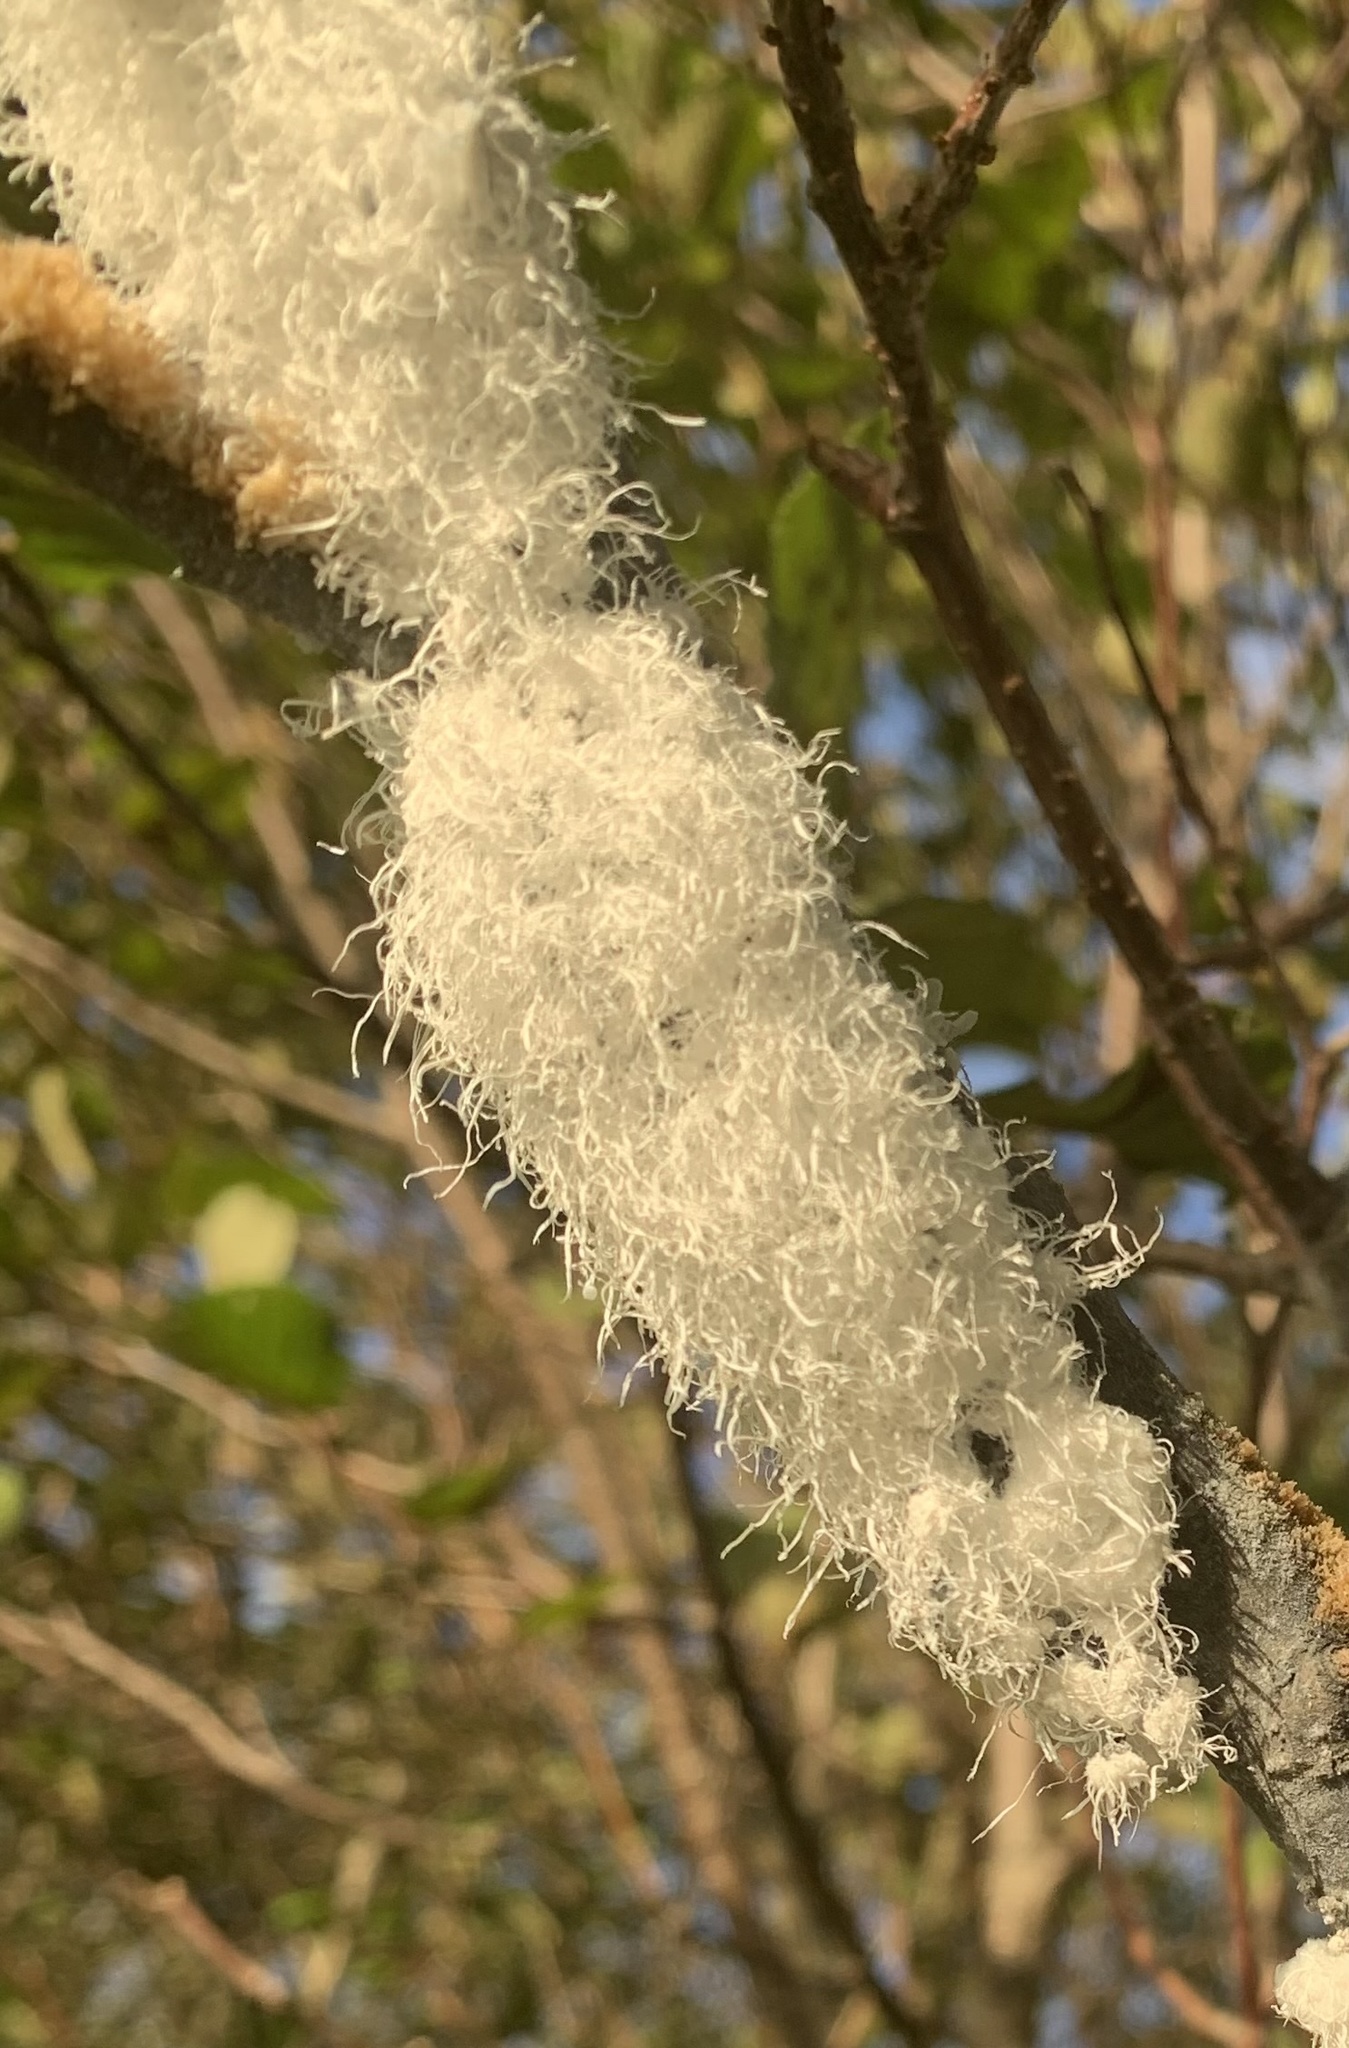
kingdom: Animalia
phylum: Arthropoda
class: Insecta
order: Hemiptera
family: Aphididae
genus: Prociphilus
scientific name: Prociphilus tessellatus
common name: Woolly alder aphid
